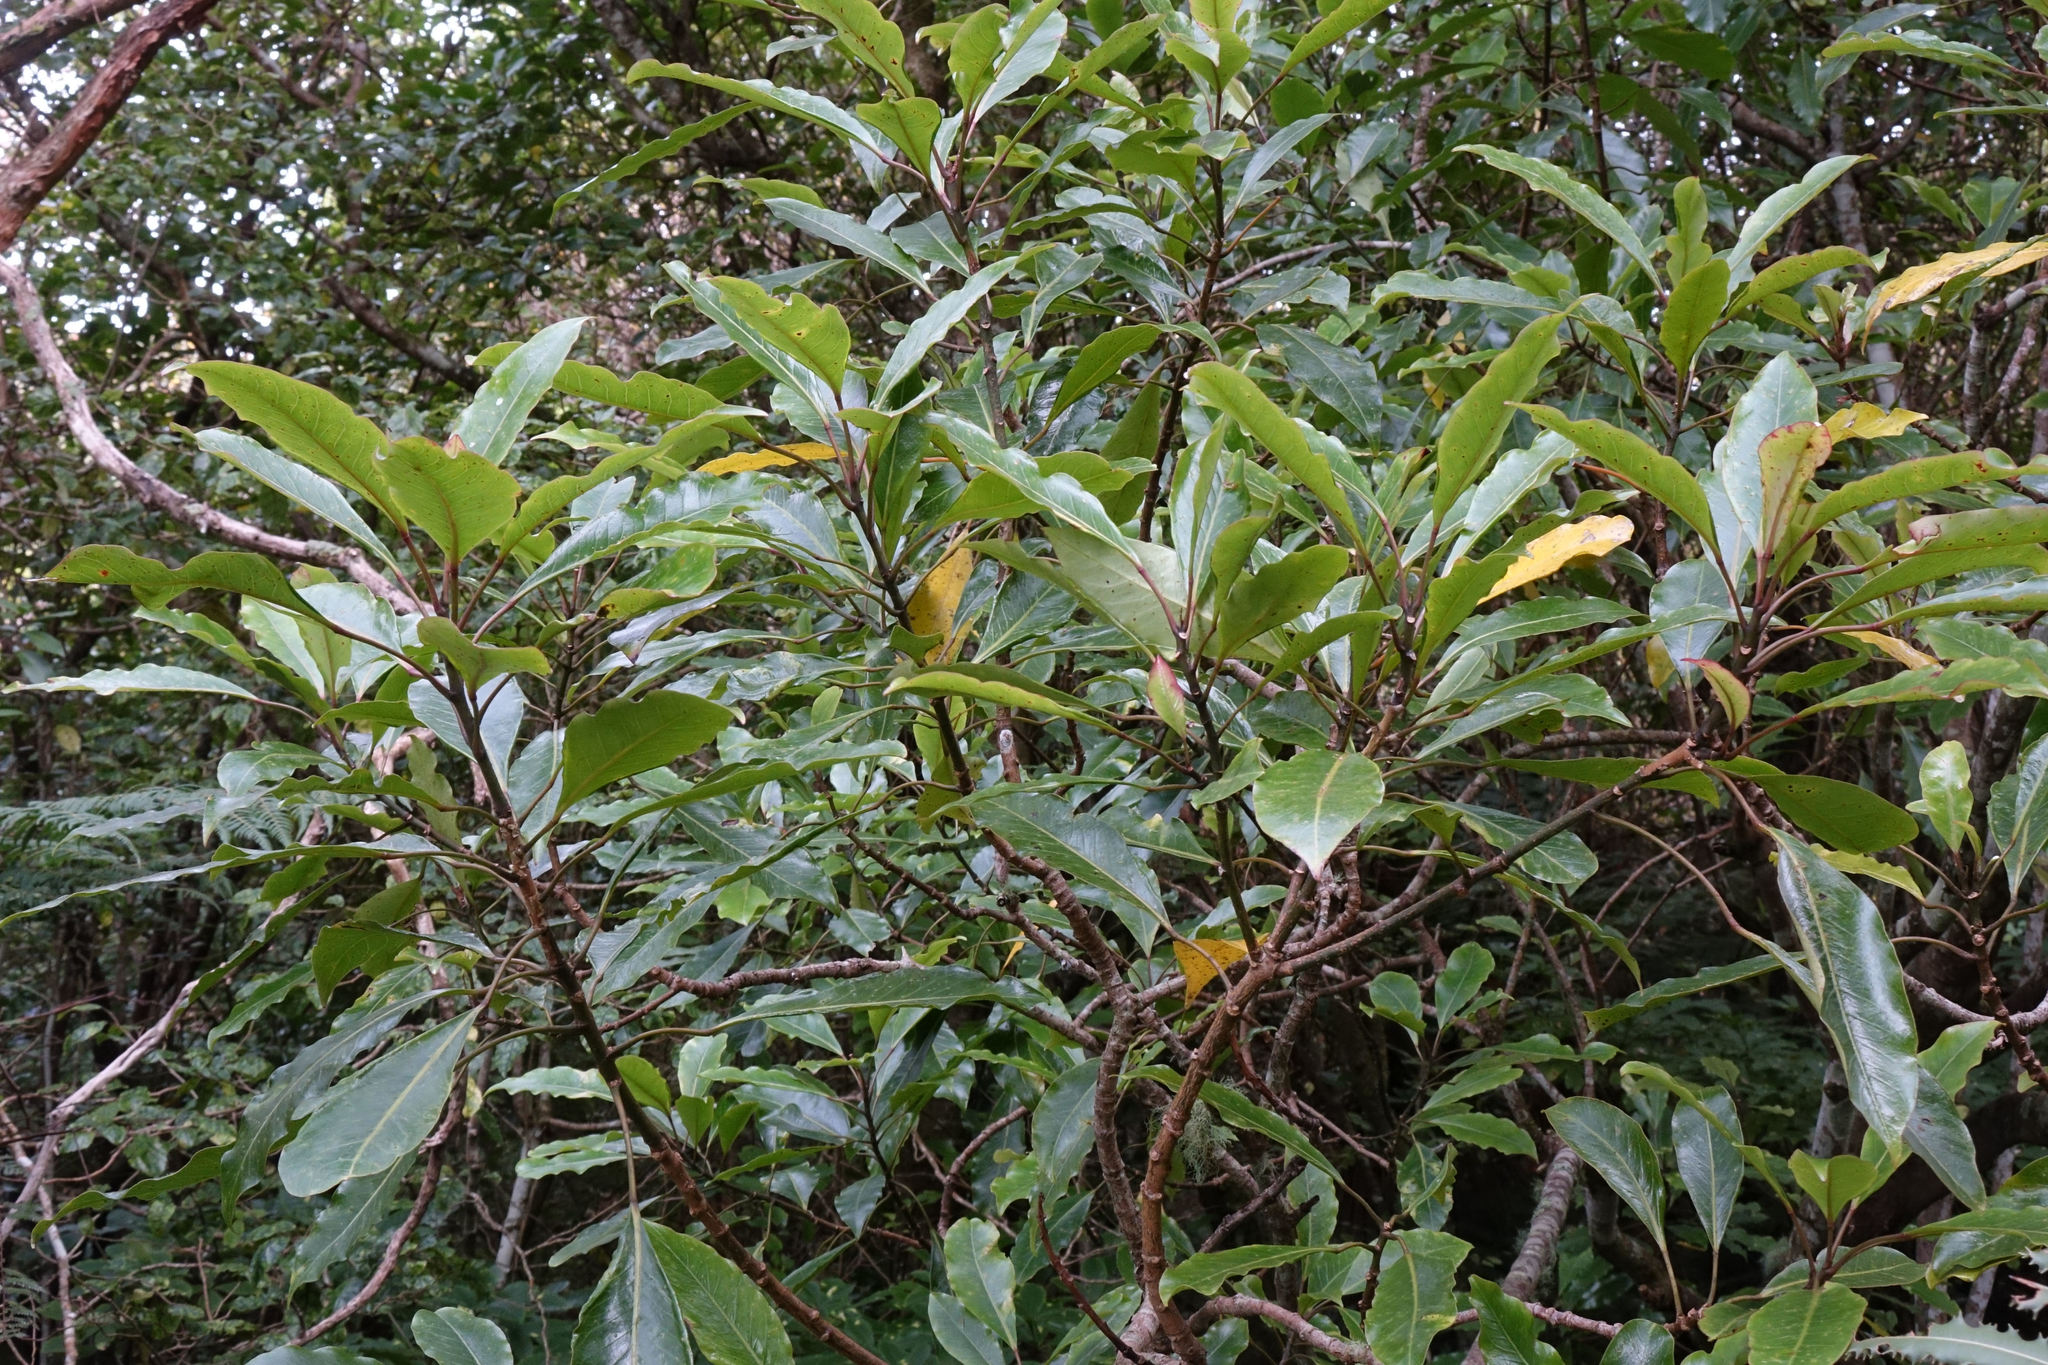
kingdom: Plantae
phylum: Tracheophyta
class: Magnoliopsida
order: Apiales
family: Araliaceae
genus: Raukaua
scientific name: Raukaua edgerleyi
